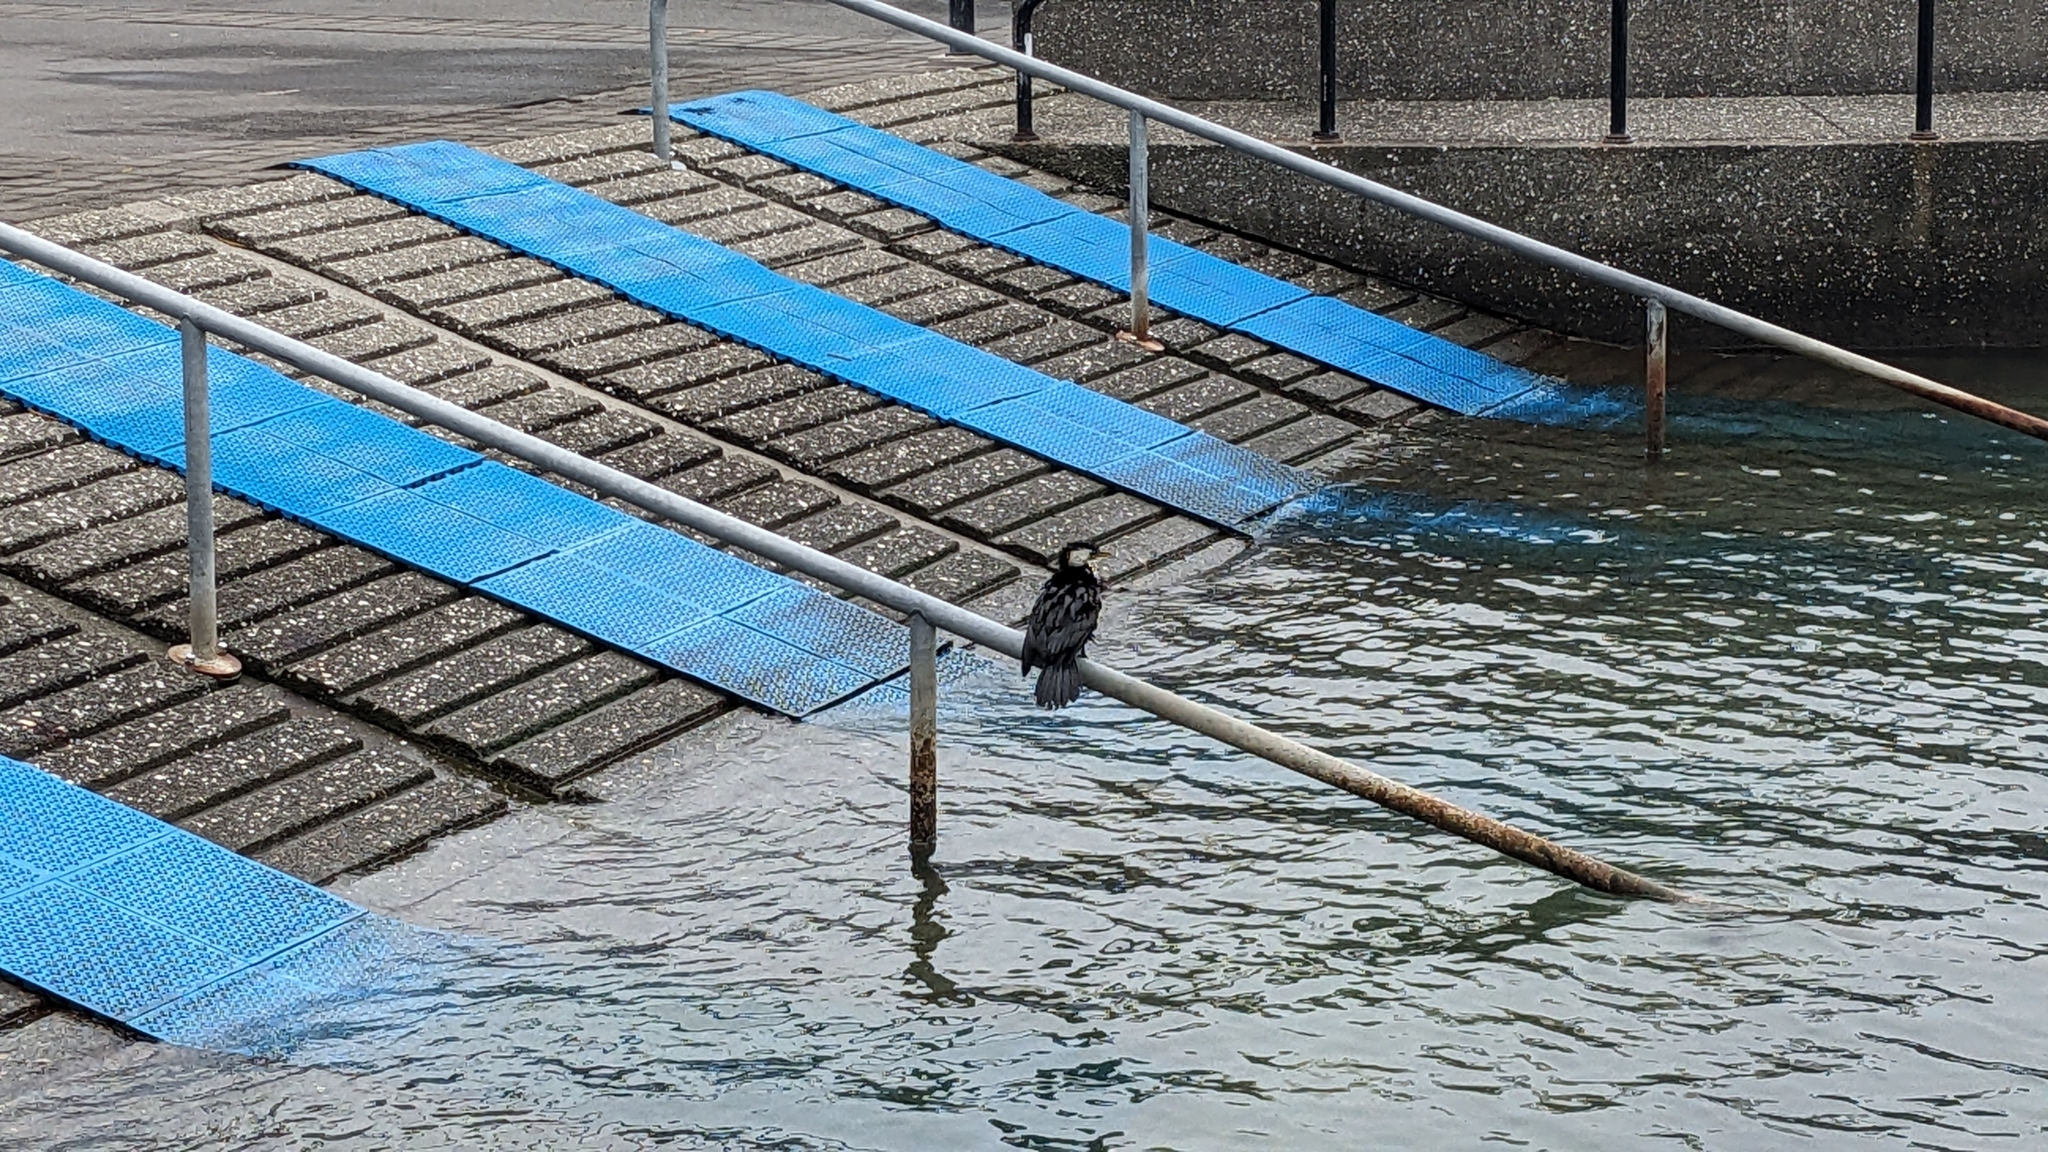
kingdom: Animalia
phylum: Chordata
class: Aves
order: Suliformes
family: Phalacrocoracidae
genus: Microcarbo
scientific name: Microcarbo melanoleucos
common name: Little pied cormorant
